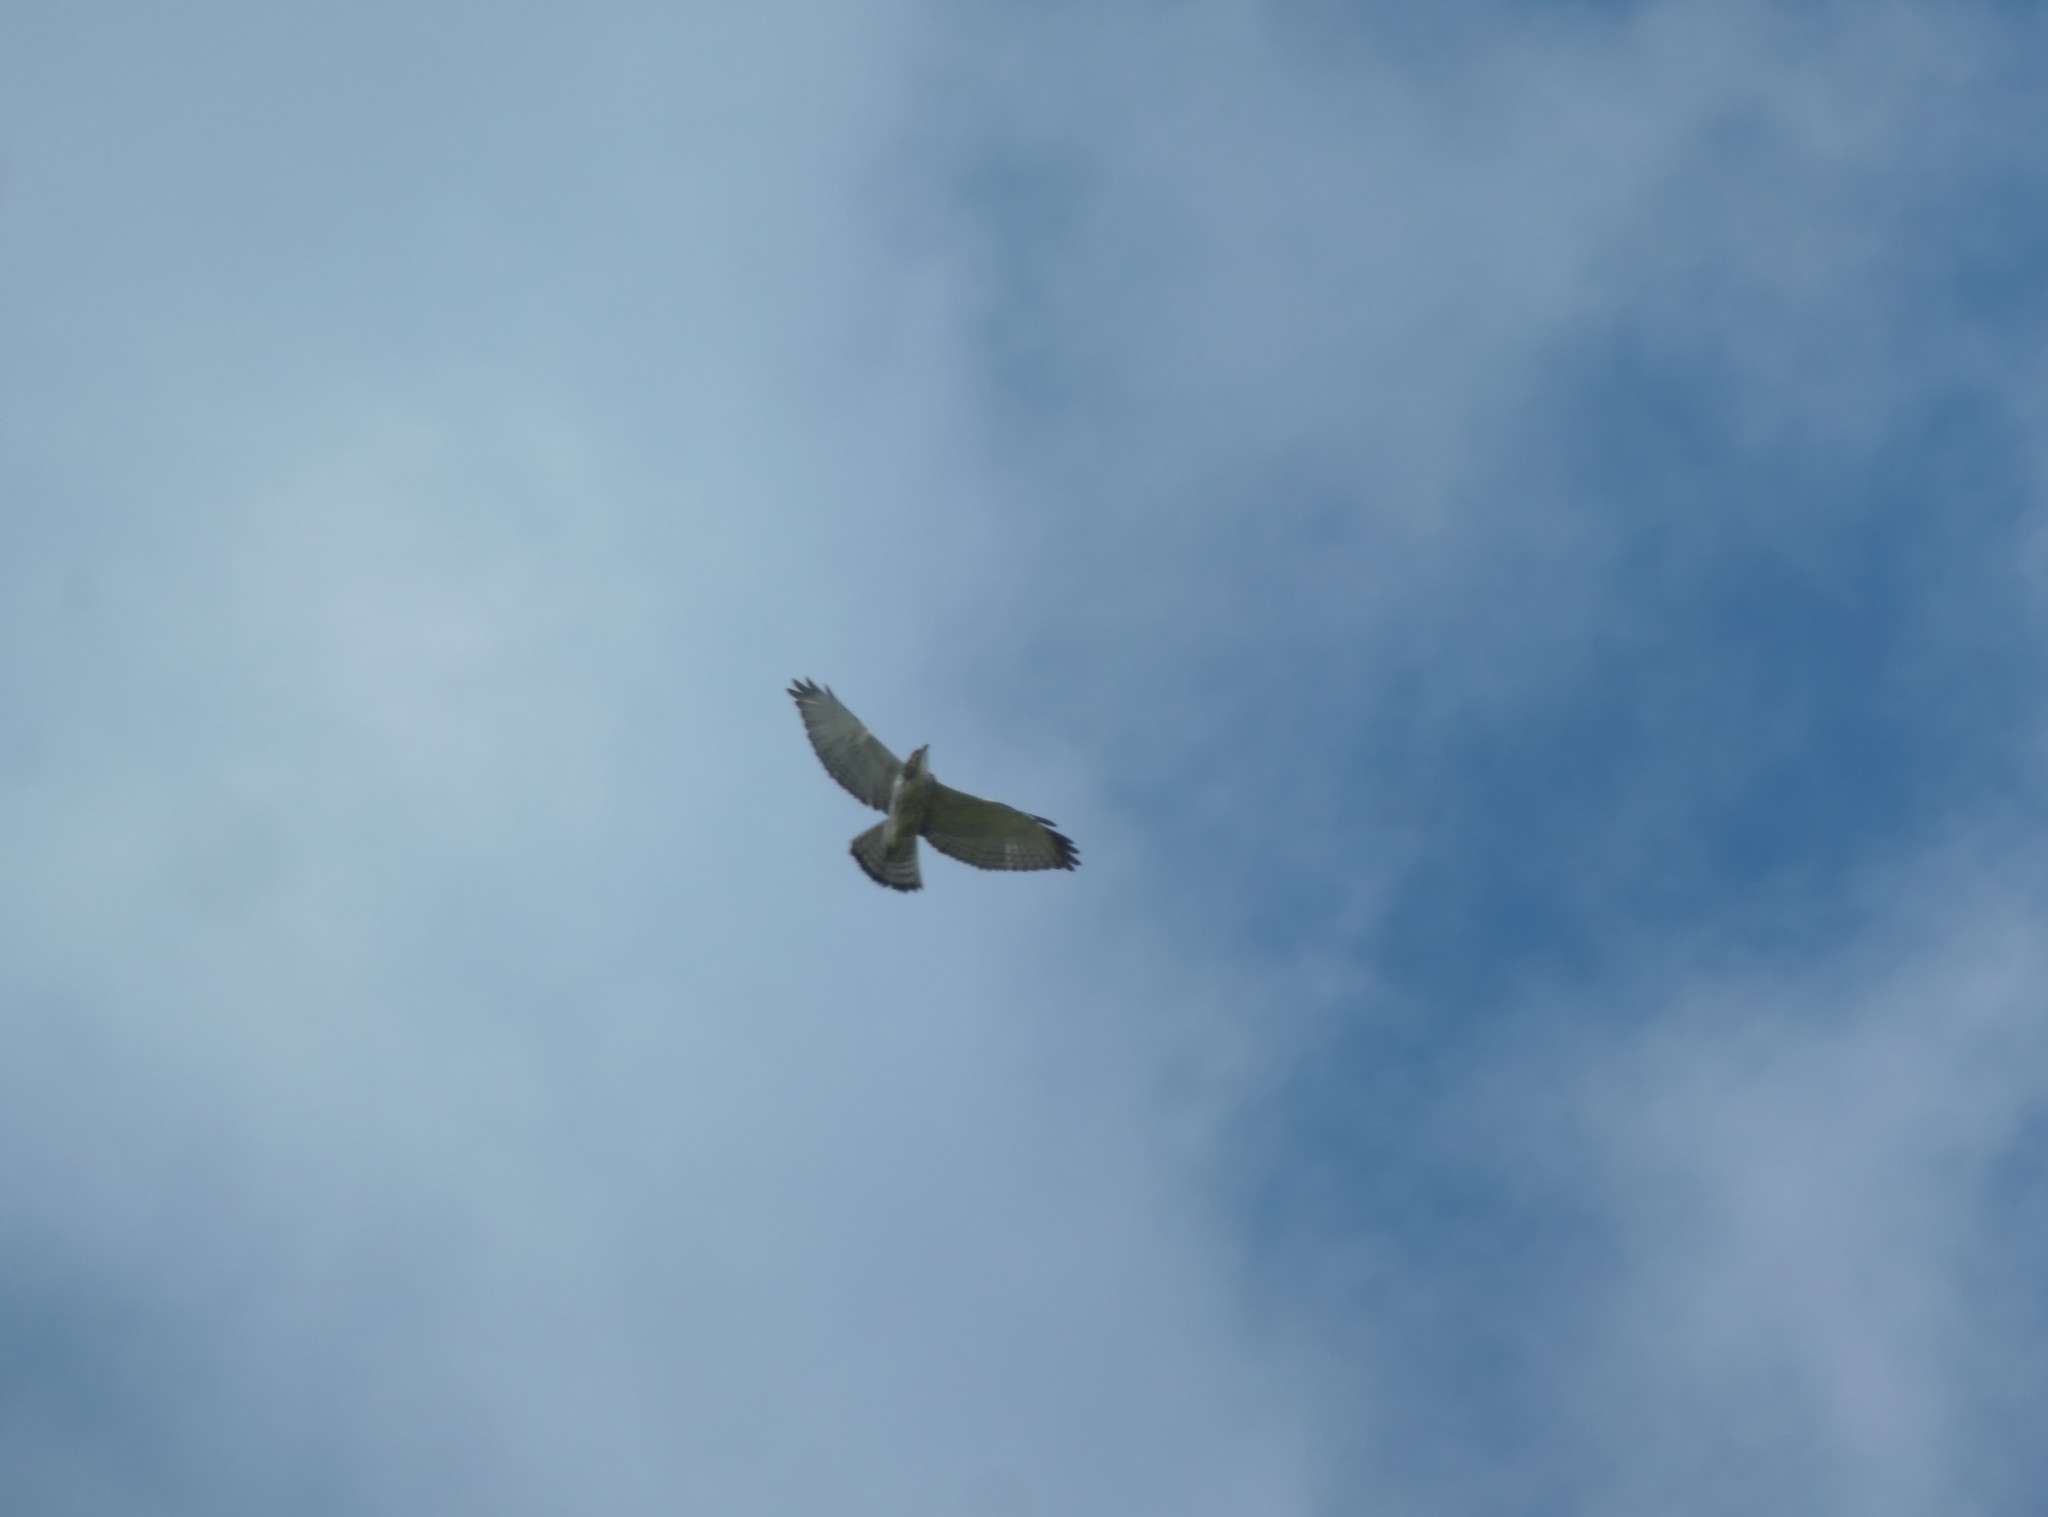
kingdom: Animalia
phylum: Chordata
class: Aves
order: Accipitriformes
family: Accipitridae
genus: Buteo
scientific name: Buteo platypterus
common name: Broad-winged hawk
